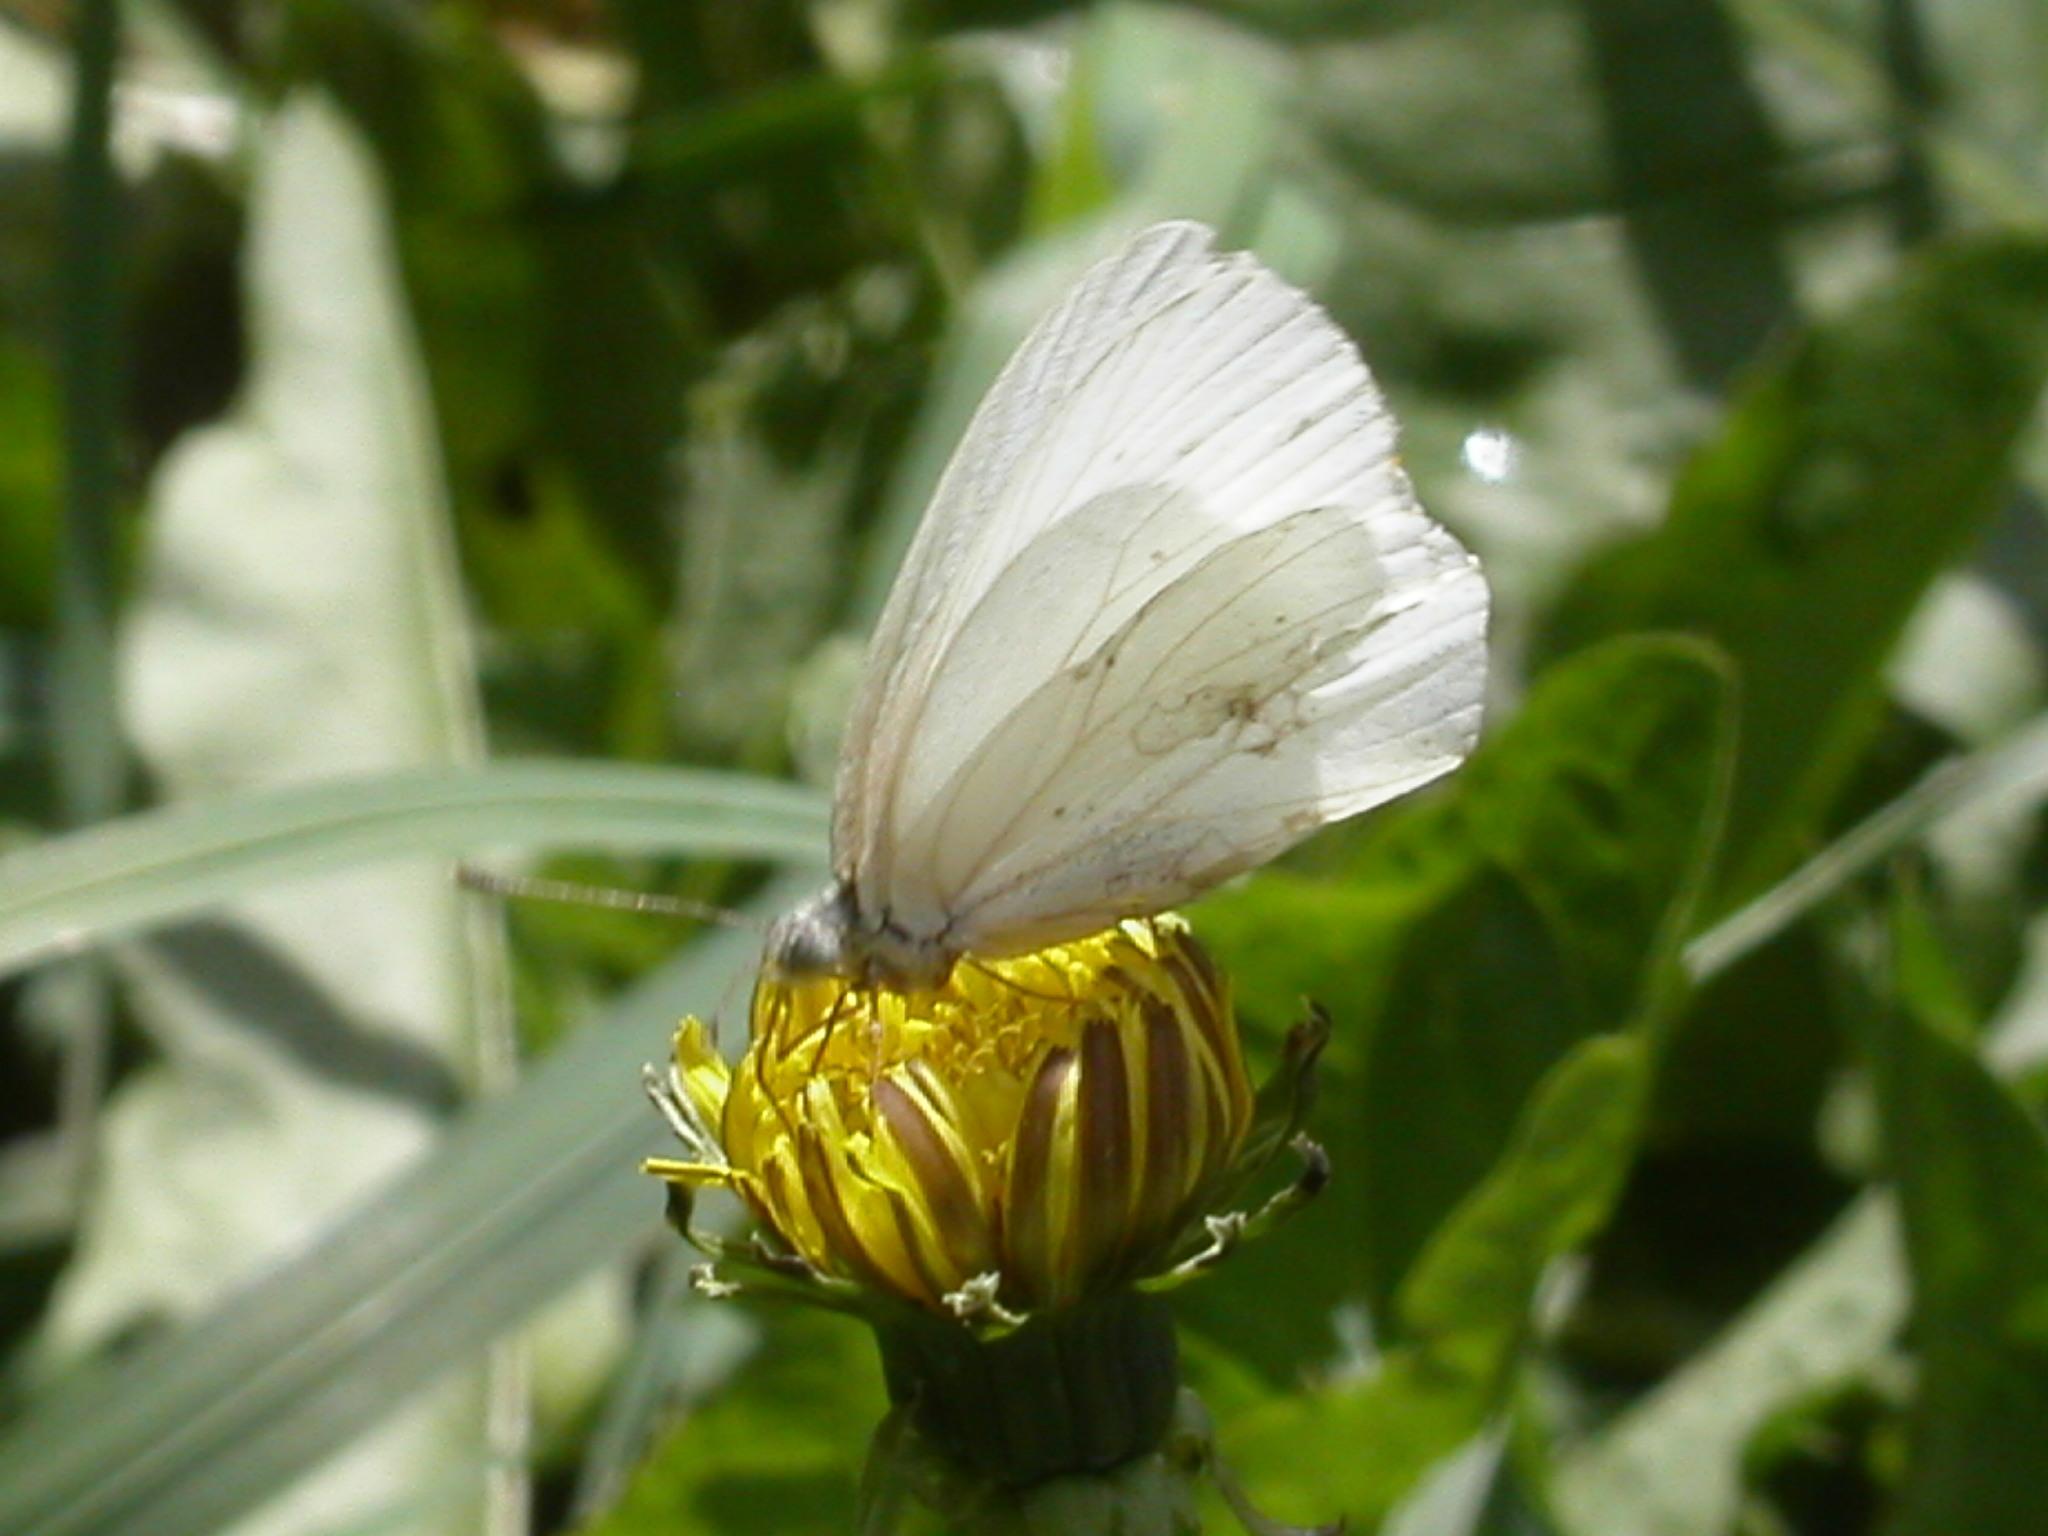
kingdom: Animalia
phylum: Arthropoda
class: Insecta
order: Lepidoptera
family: Pieridae
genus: Pieris
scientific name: Pieris marginalis
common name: Margined white
